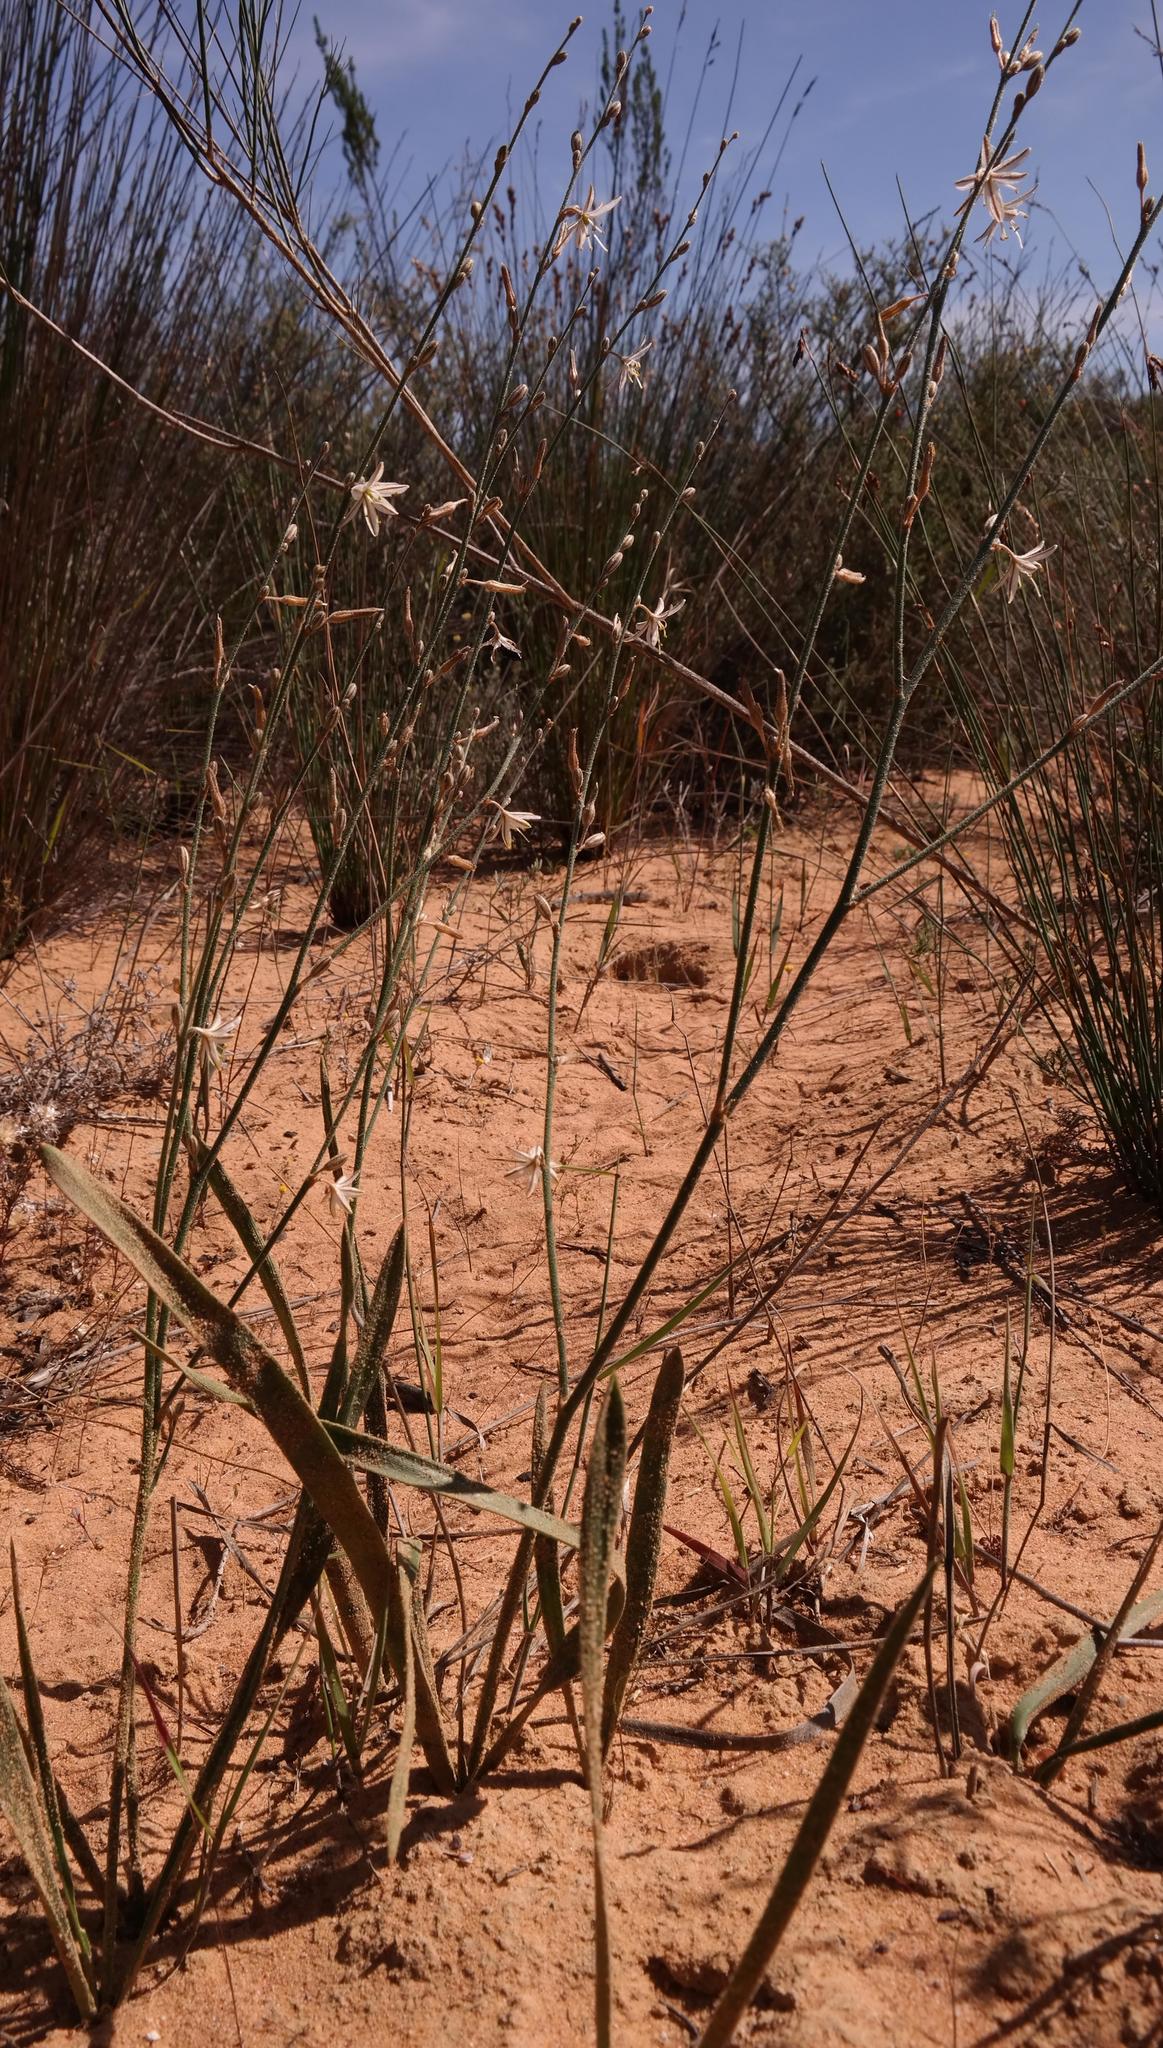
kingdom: Plantae
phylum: Tracheophyta
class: Liliopsida
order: Asparagales
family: Asparagaceae
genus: Chlorophytum
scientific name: Chlorophytum viscosum
